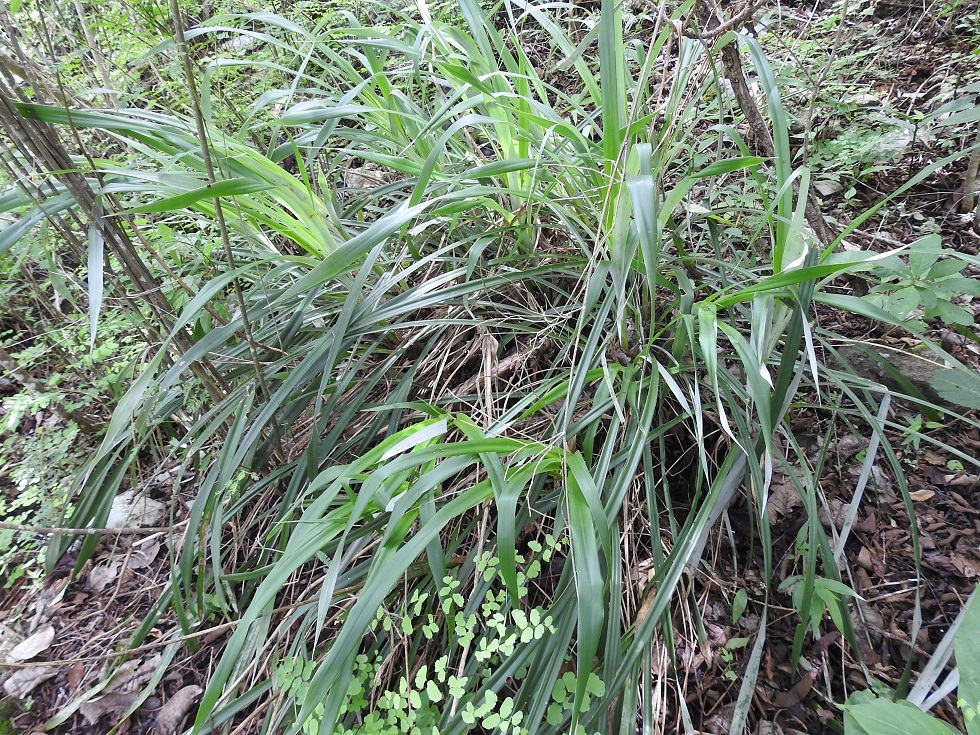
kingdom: Plantae
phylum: Tracheophyta
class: Liliopsida
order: Poales
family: Bromeliaceae
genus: Pitcairnia
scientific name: Pitcairnia breedlovei
